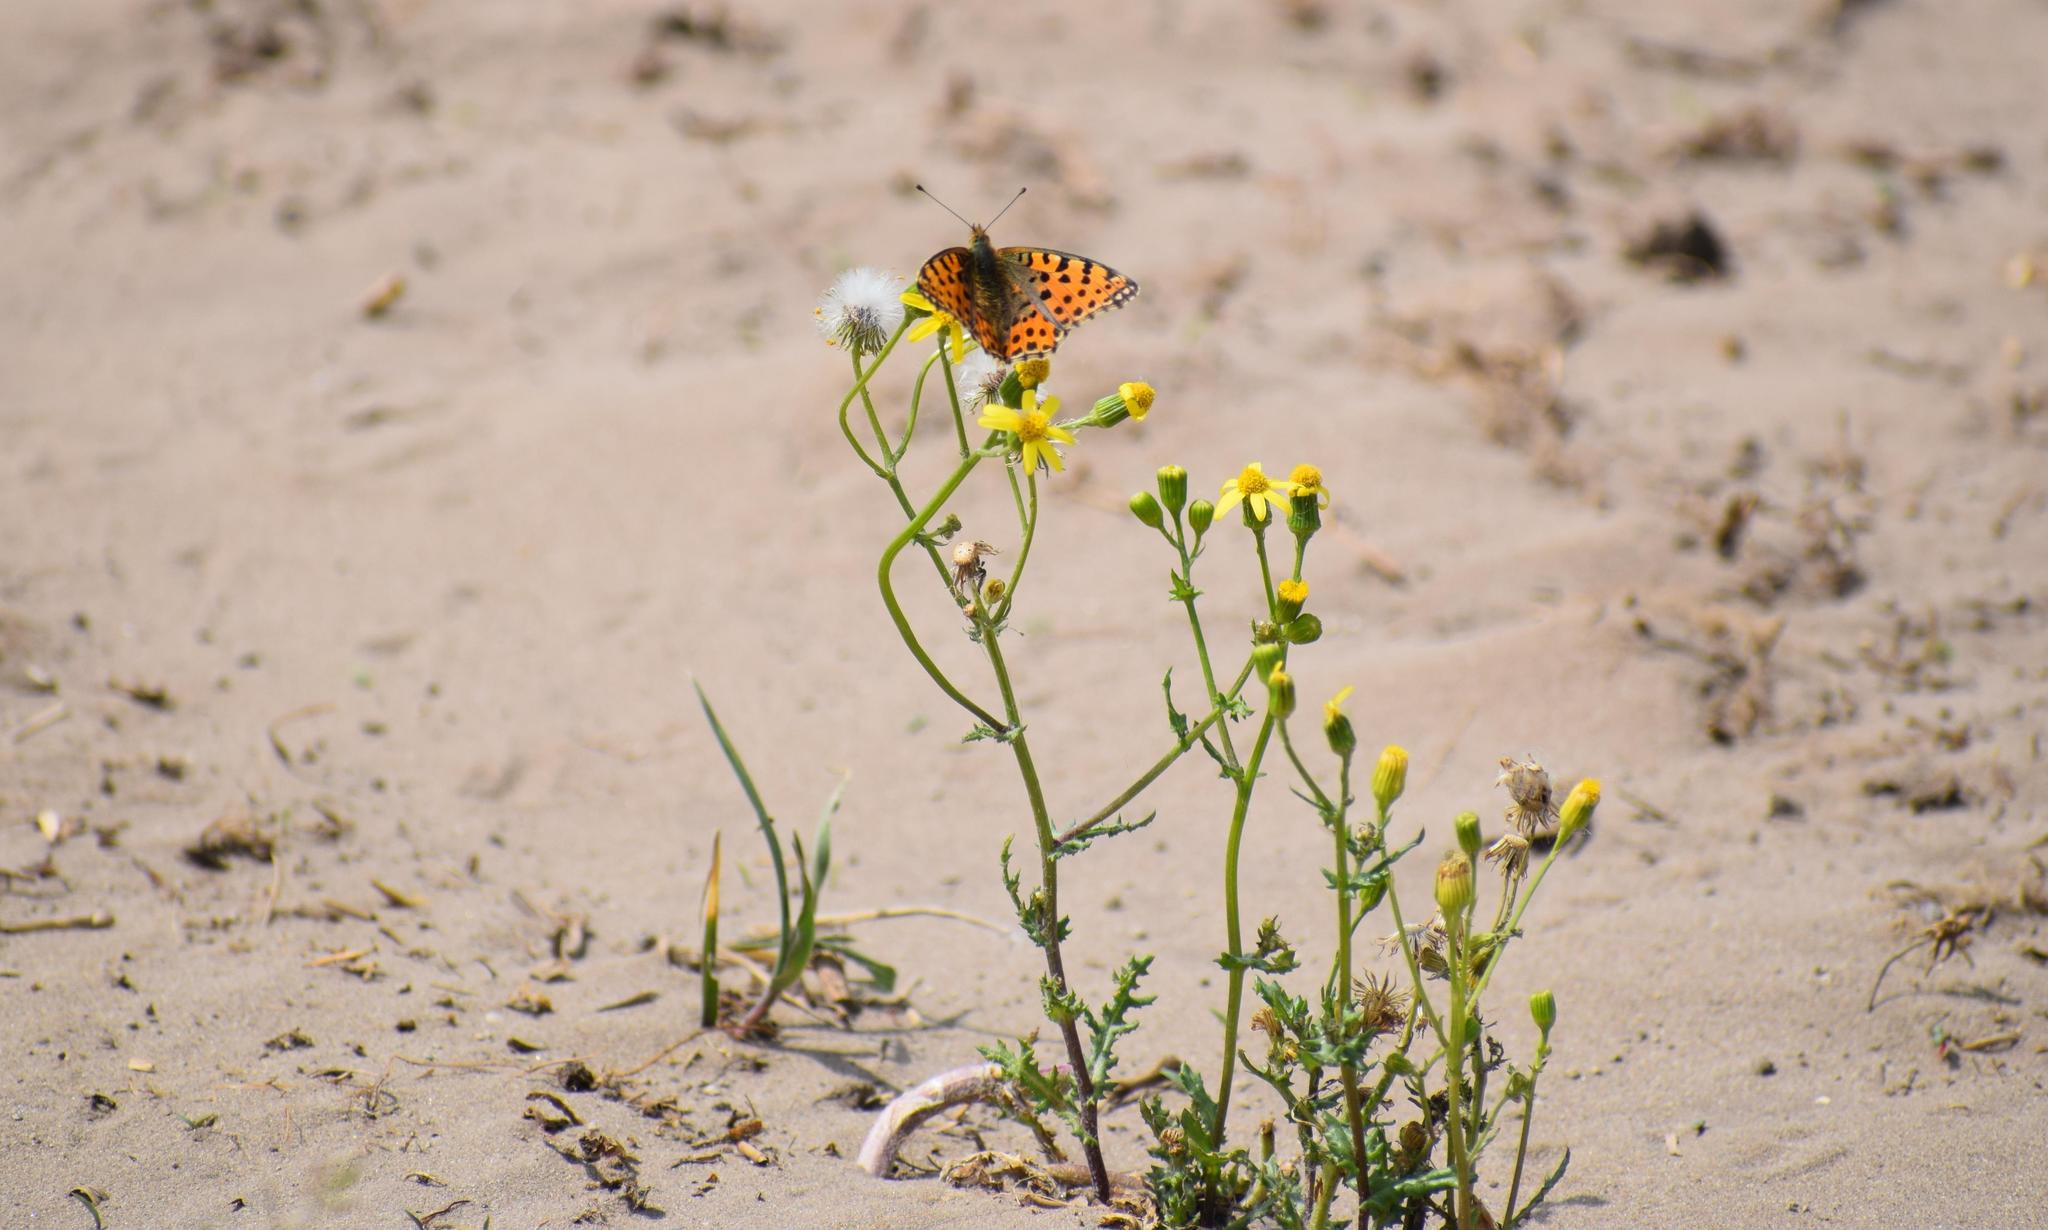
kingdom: Animalia
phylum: Arthropoda
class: Insecta
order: Lepidoptera
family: Nymphalidae
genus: Issoria
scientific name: Issoria lathonia
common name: Queen of spain fritillary
